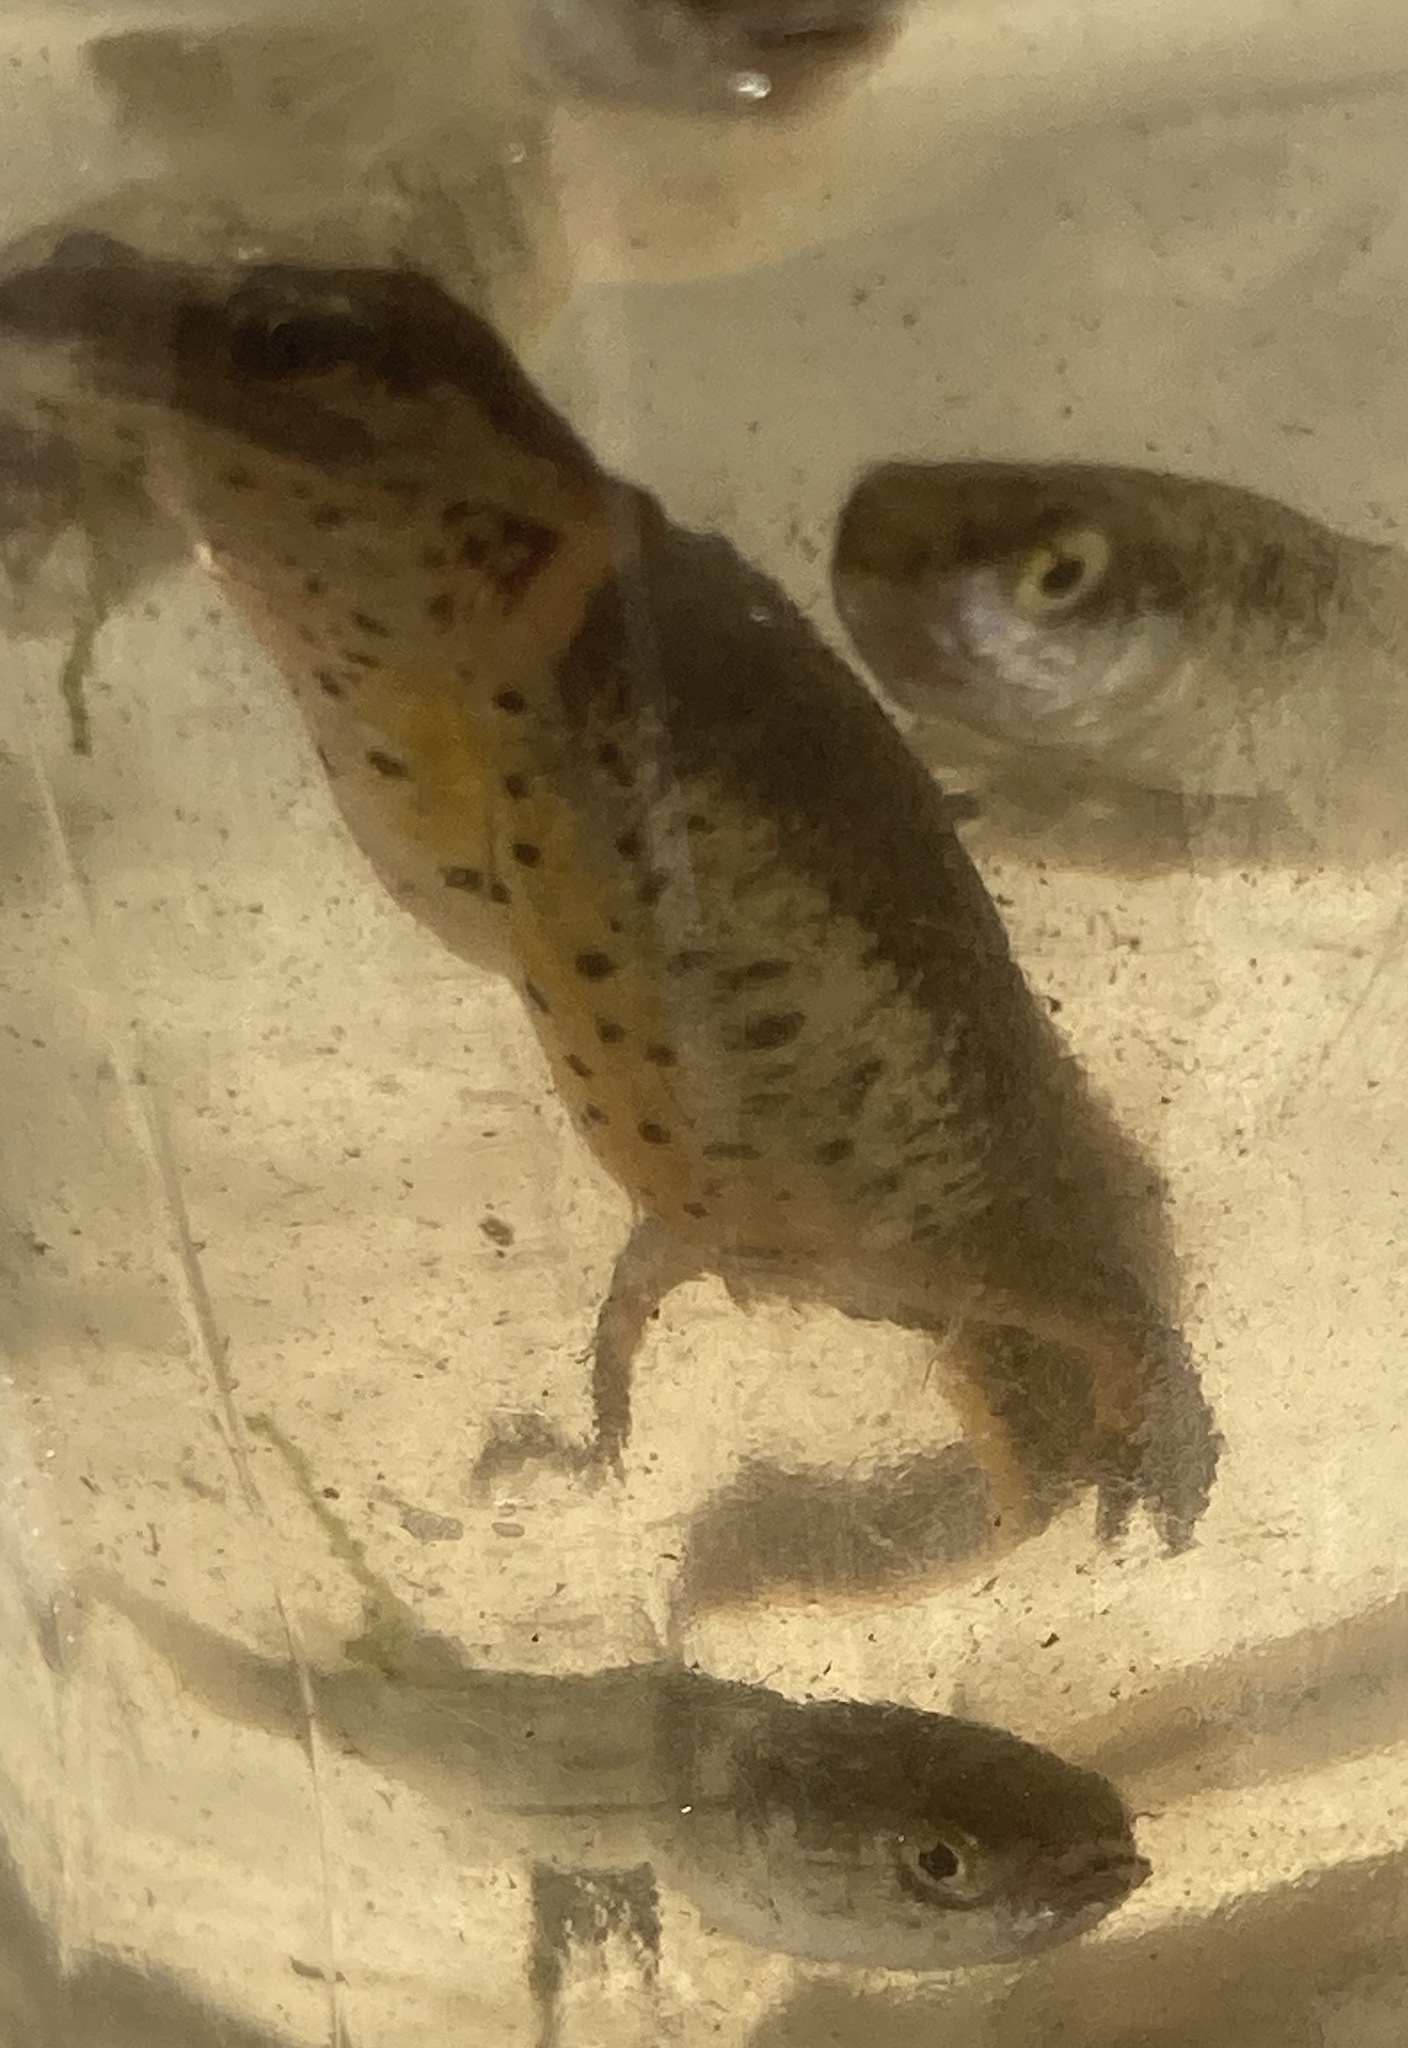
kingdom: Animalia
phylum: Chordata
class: Amphibia
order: Caudata
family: Salamandridae
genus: Lissotriton
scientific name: Lissotriton graecus
